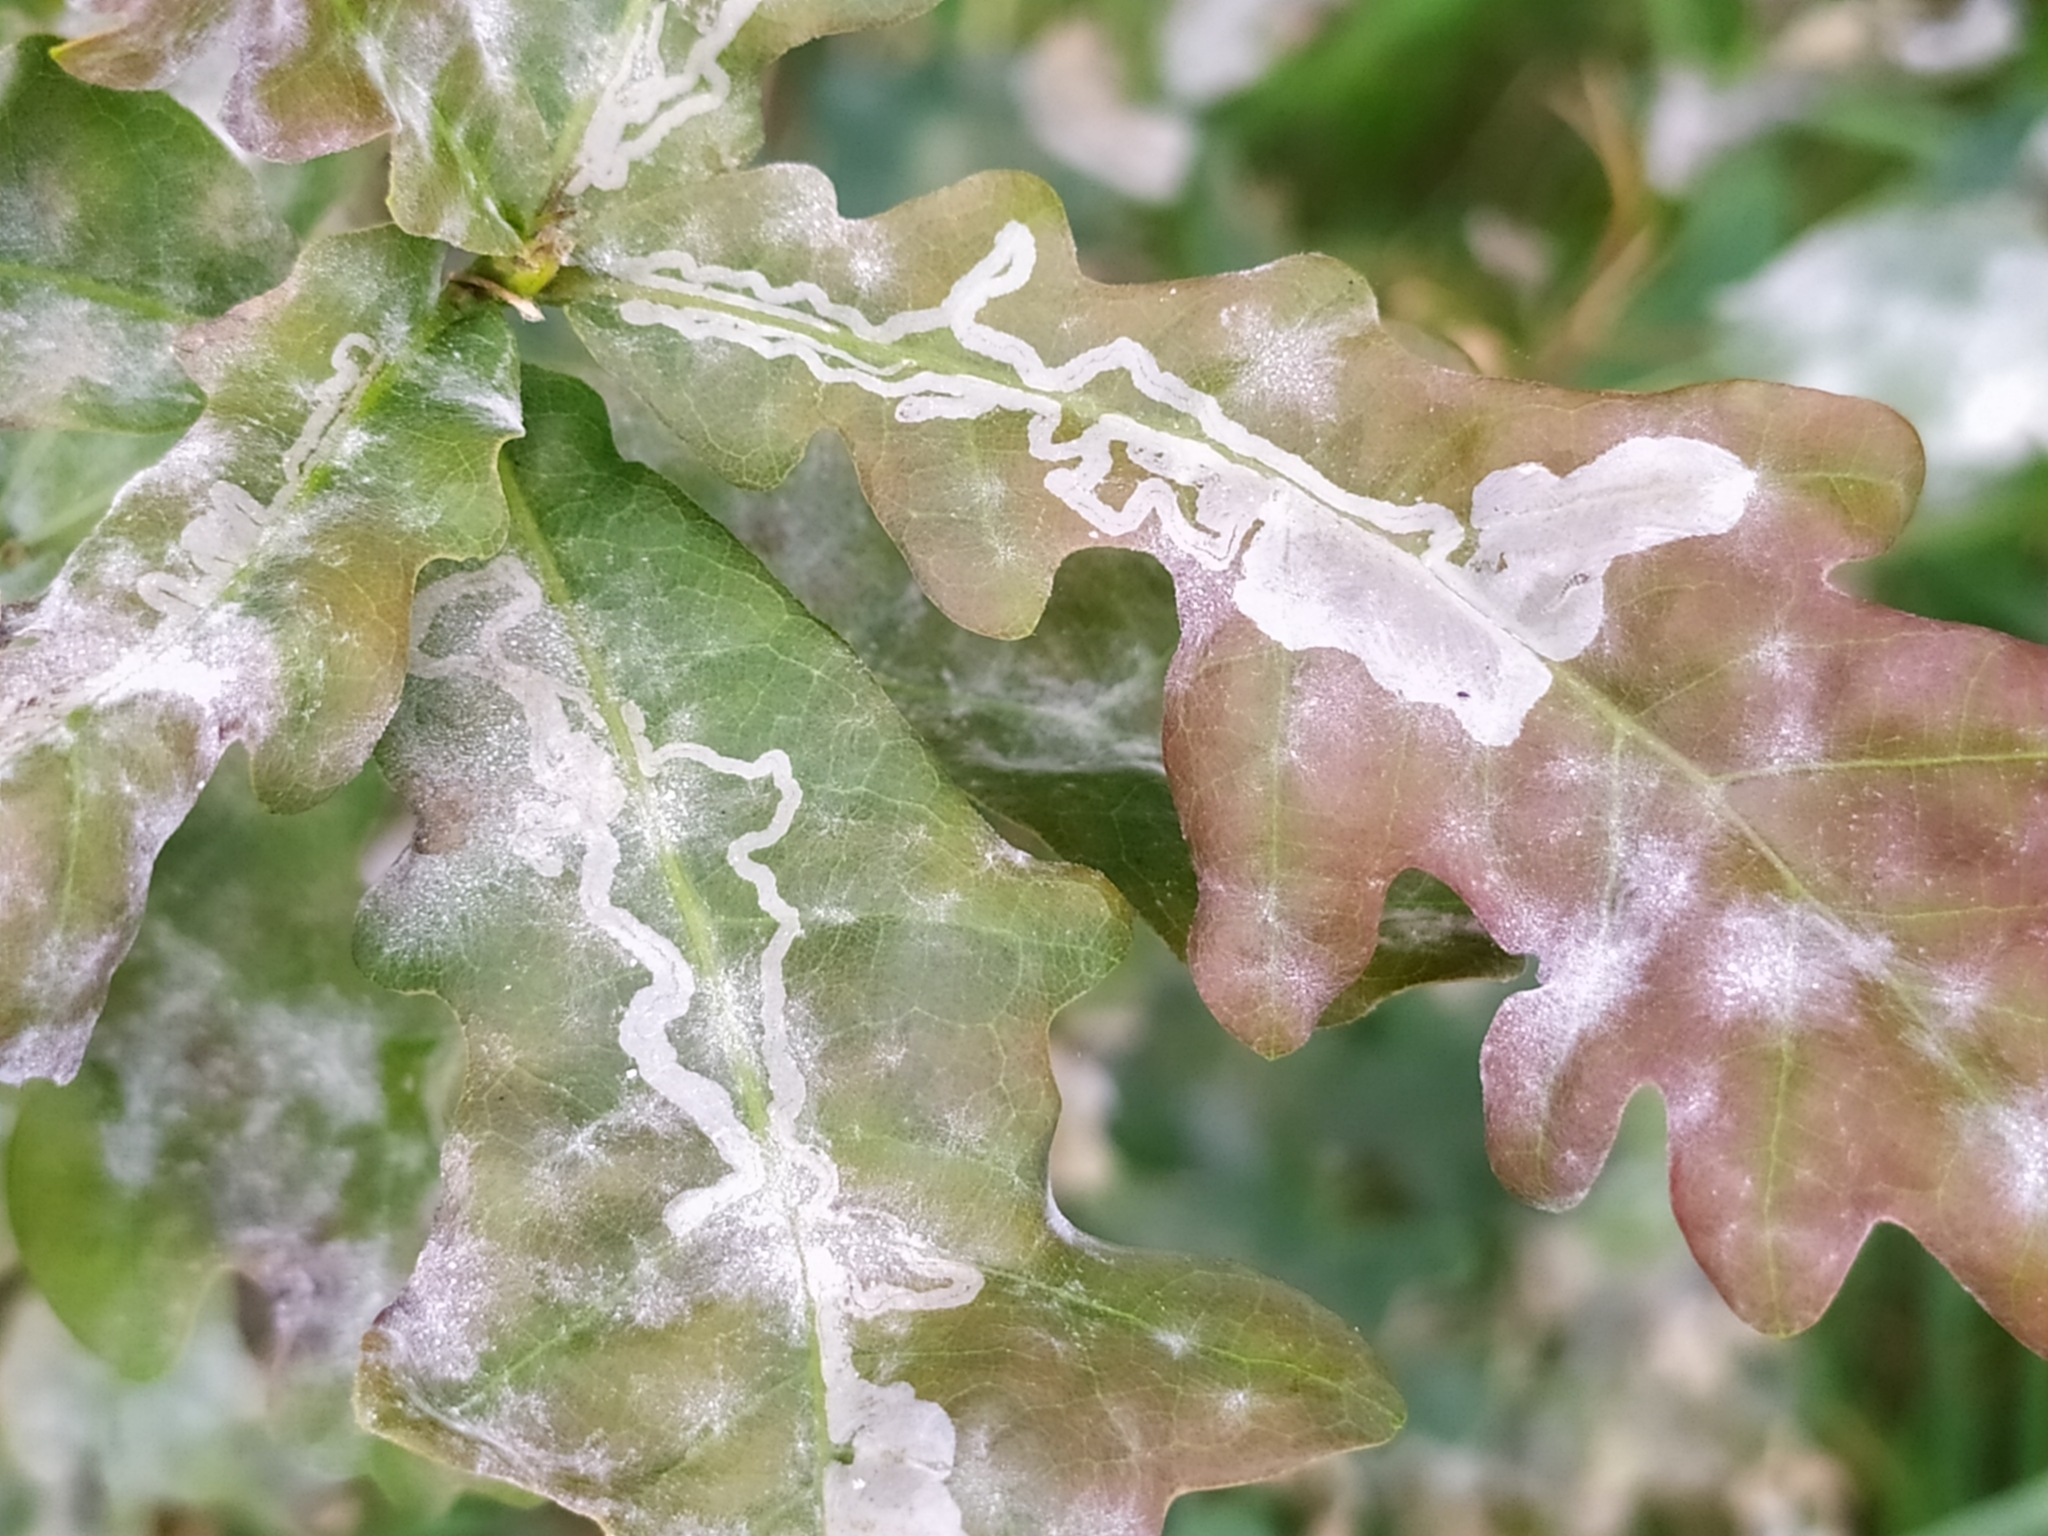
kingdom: Animalia
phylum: Arthropoda
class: Insecta
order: Lepidoptera
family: Gracillariidae
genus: Acrocercops
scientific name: Acrocercops brongniardella
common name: Brown oak slender
